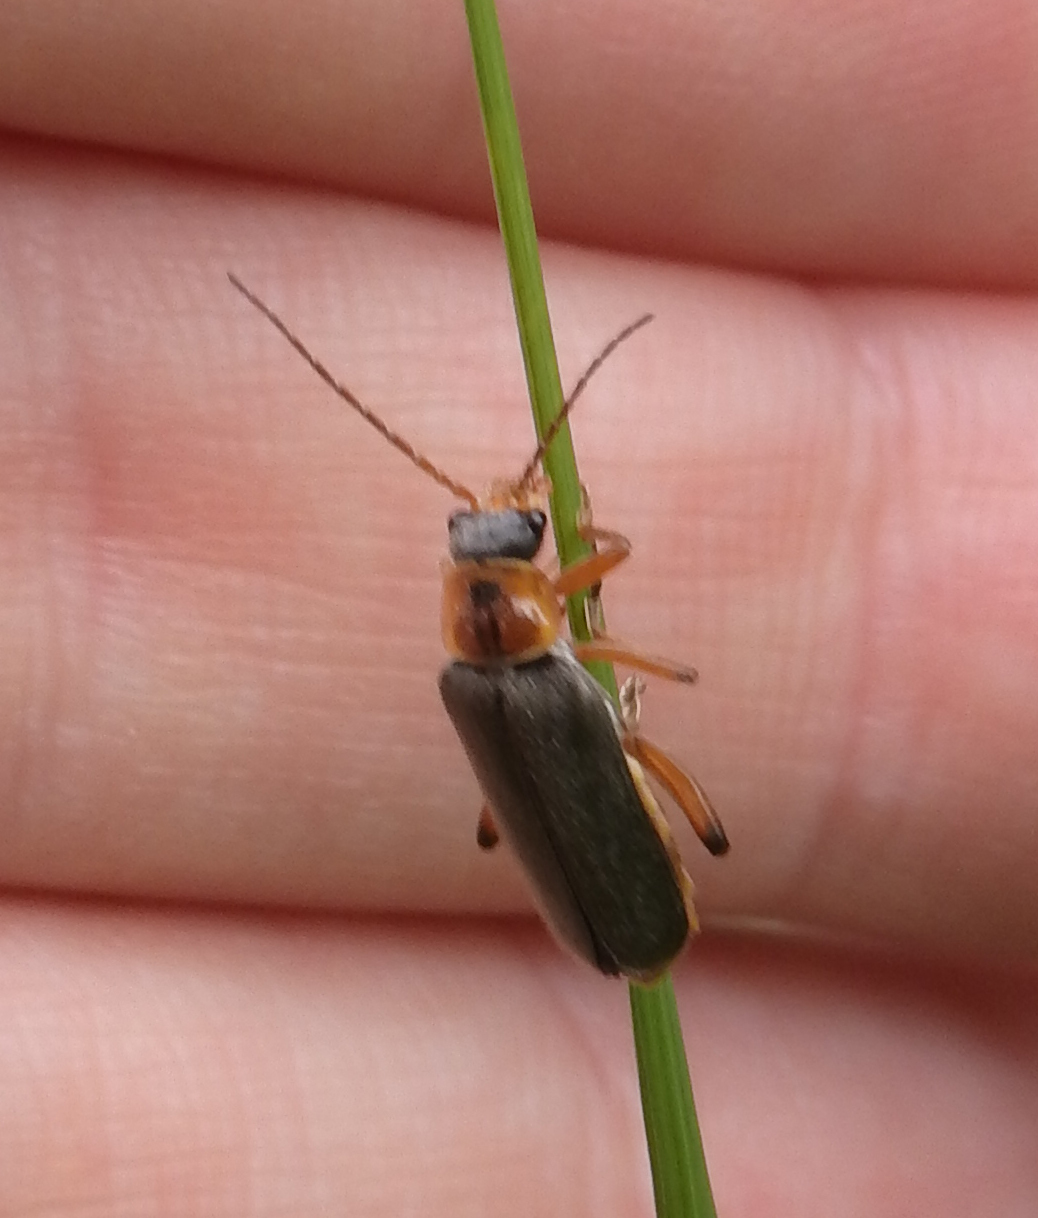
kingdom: Animalia
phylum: Arthropoda
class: Insecta
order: Coleoptera
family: Cantharidae
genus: Cantharis
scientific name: Cantharis nigricans
